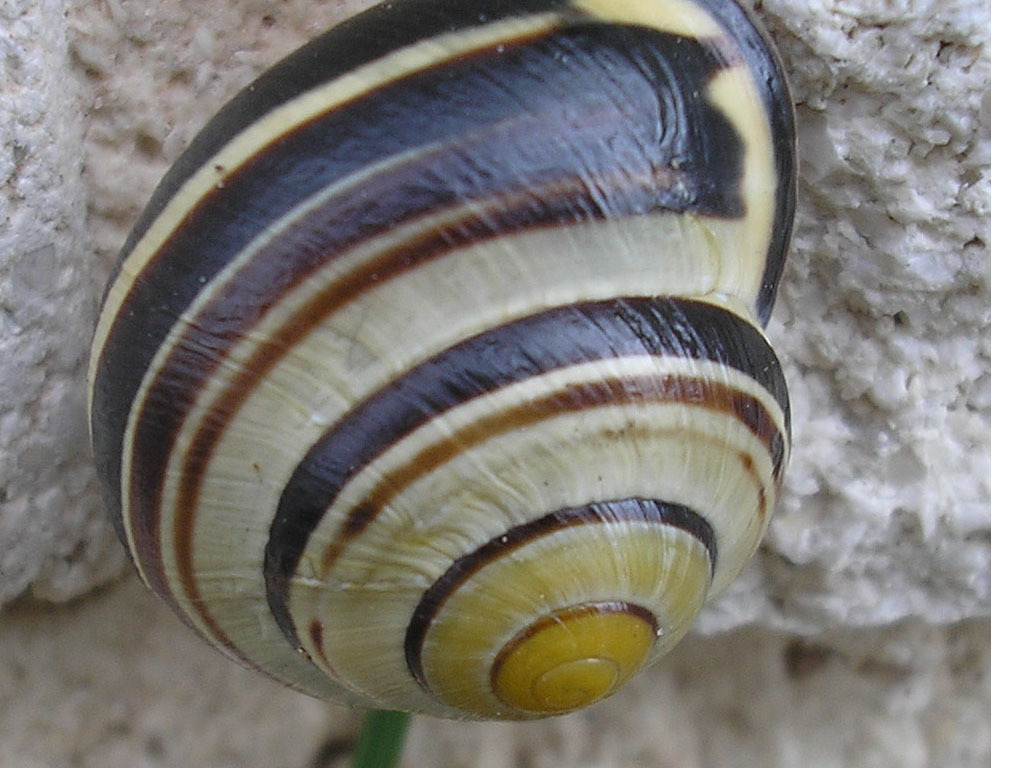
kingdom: Animalia
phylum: Mollusca
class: Gastropoda
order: Stylommatophora
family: Helicidae
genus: Cepaea
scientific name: Cepaea nemoralis
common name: Grovesnail
